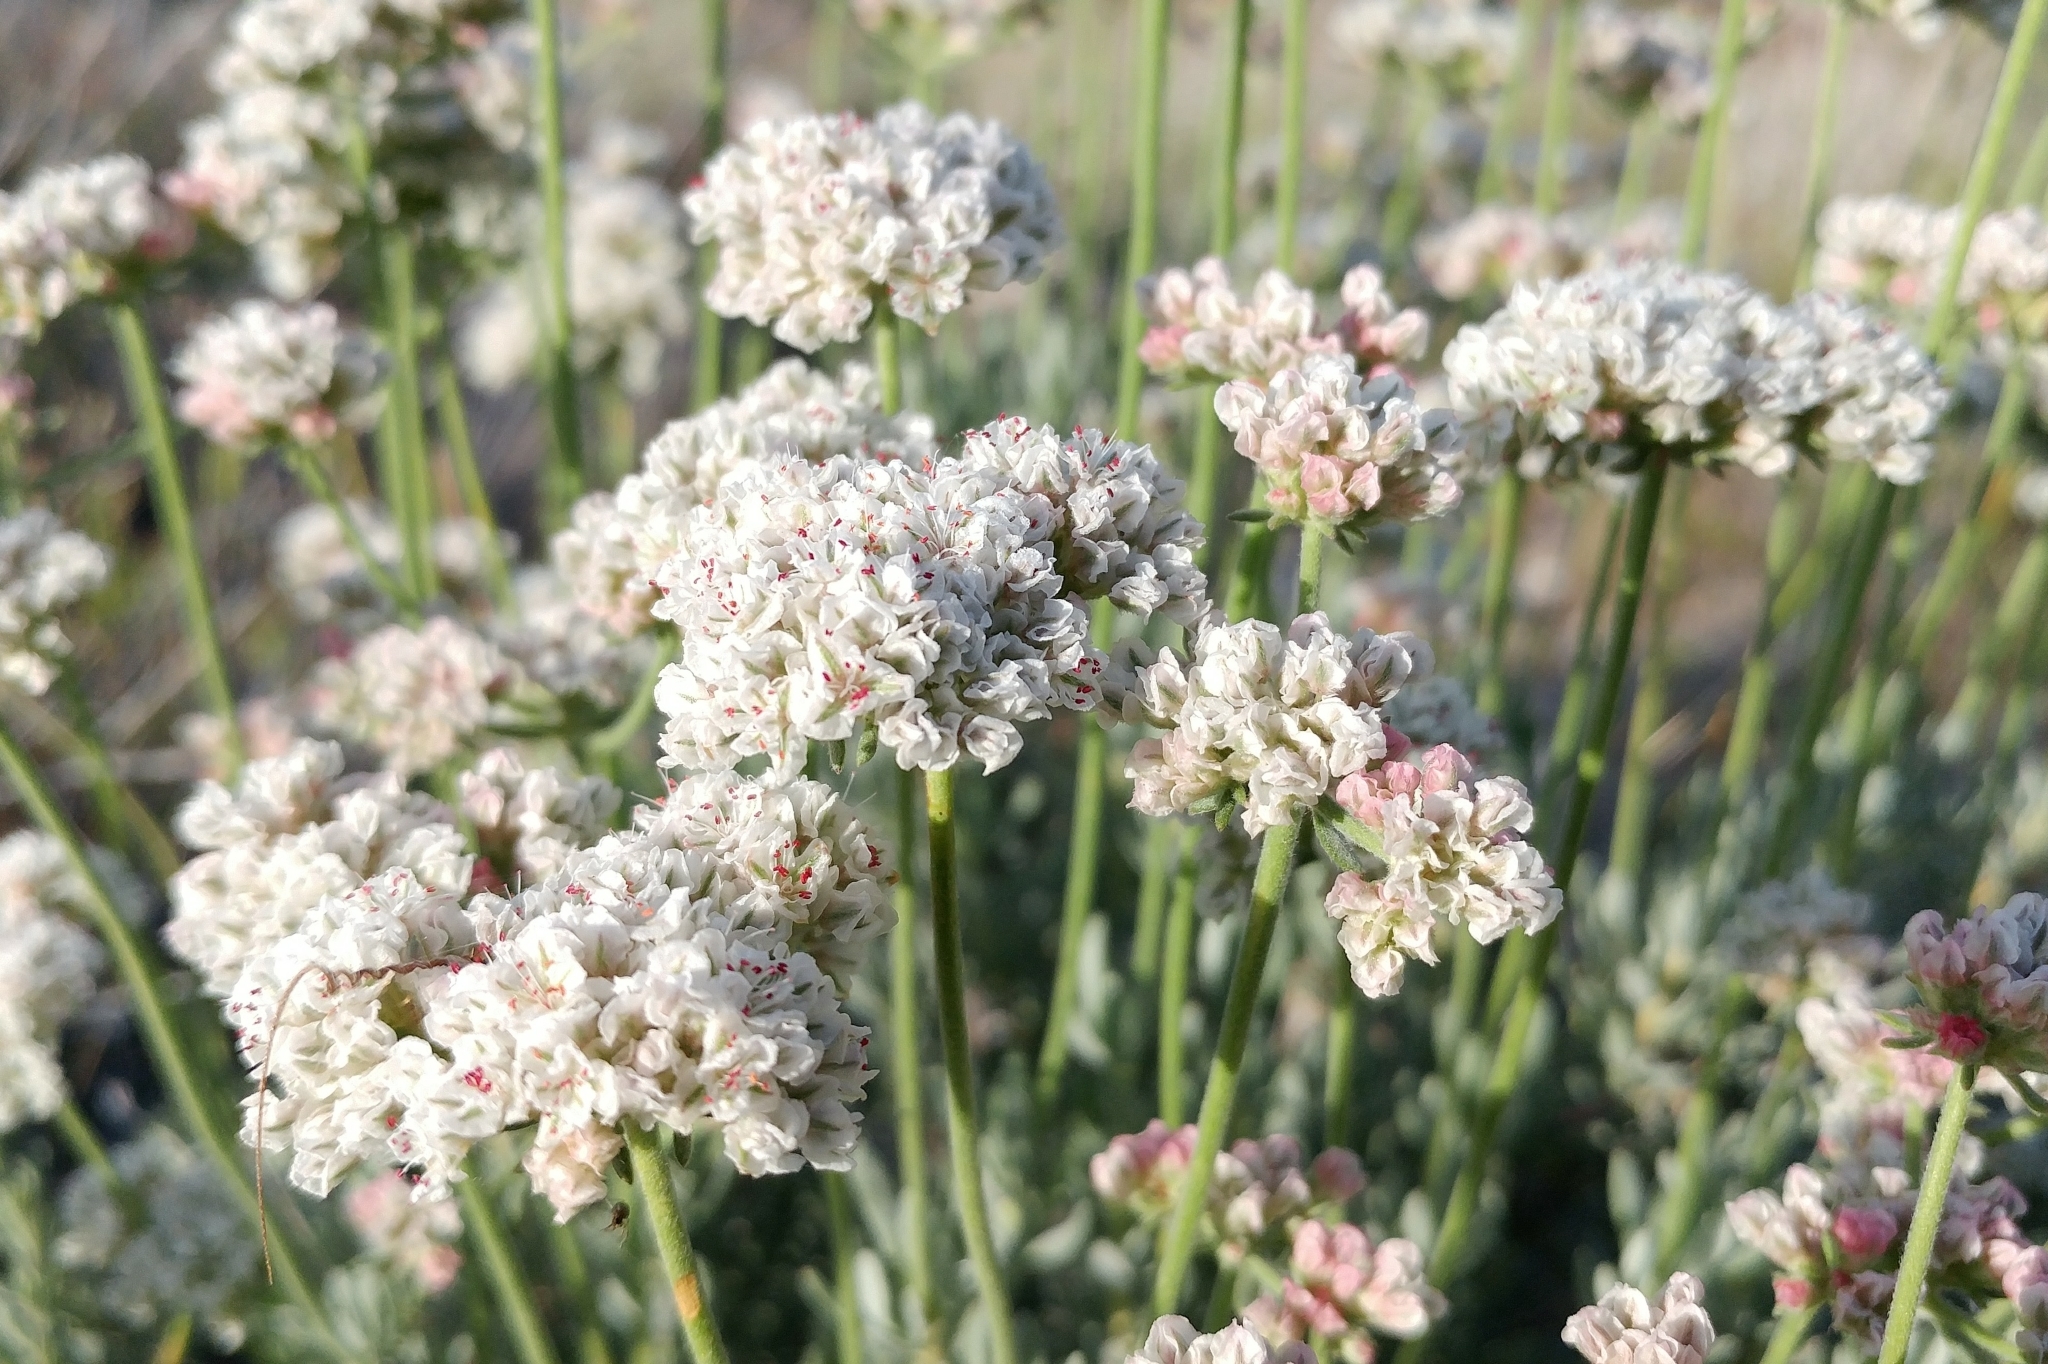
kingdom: Plantae
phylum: Tracheophyta
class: Magnoliopsida
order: Caryophyllales
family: Polygonaceae
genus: Eriogonum
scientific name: Eriogonum fasciculatum
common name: California wild buckwheat
